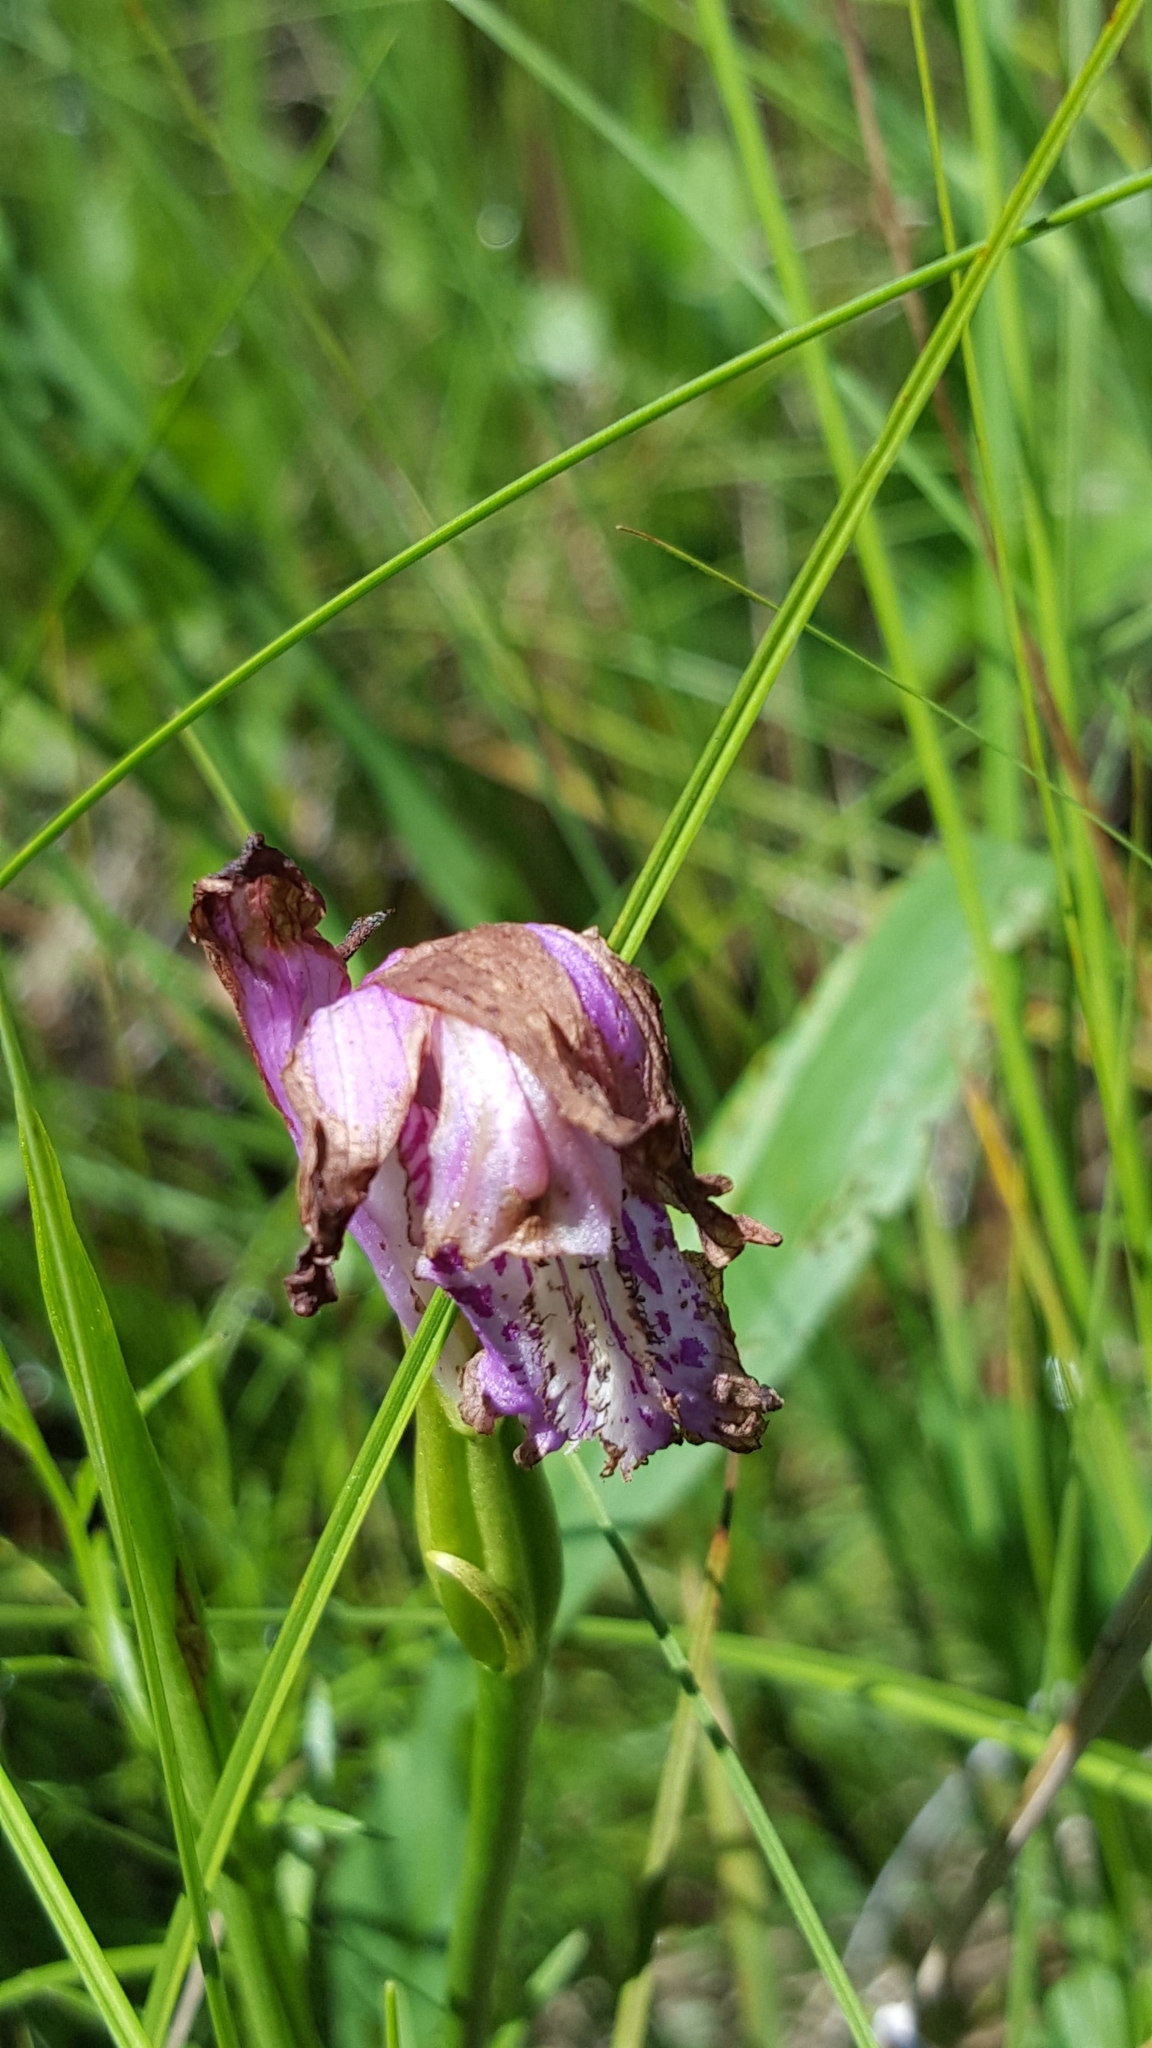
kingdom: Plantae
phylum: Tracheophyta
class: Liliopsida
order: Asparagales
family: Orchidaceae
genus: Arethusa
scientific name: Arethusa bulbosa
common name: Arethusa
